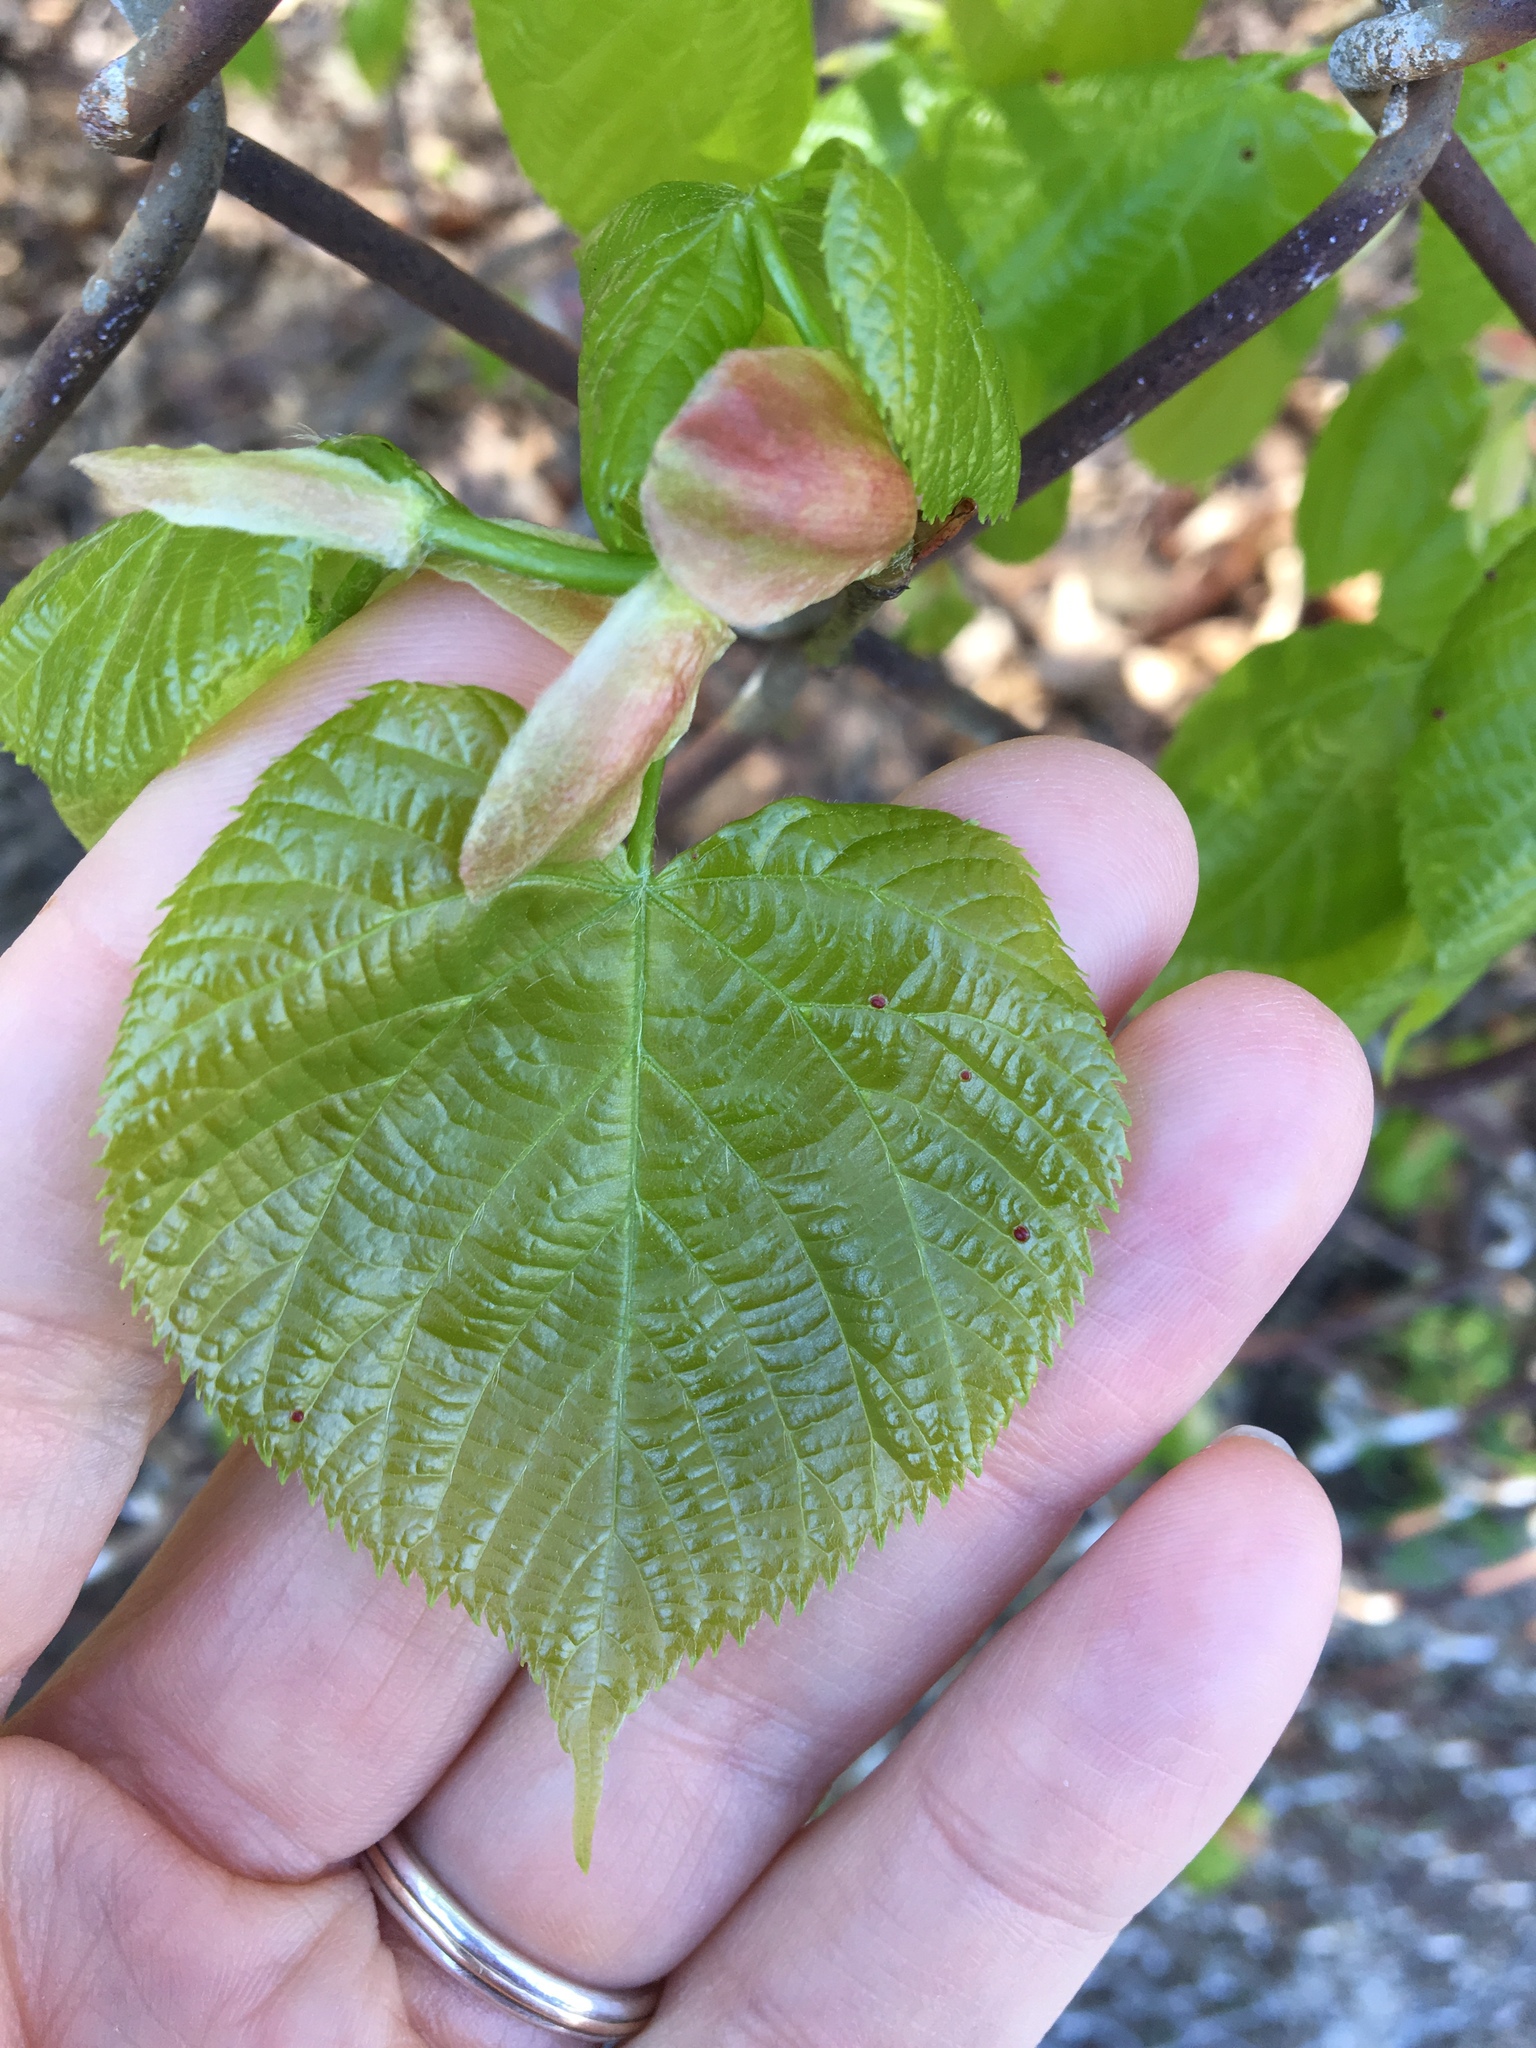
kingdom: Plantae
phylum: Tracheophyta
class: Magnoliopsida
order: Malvales
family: Malvaceae
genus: Tilia
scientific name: Tilia americana
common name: Basswood
